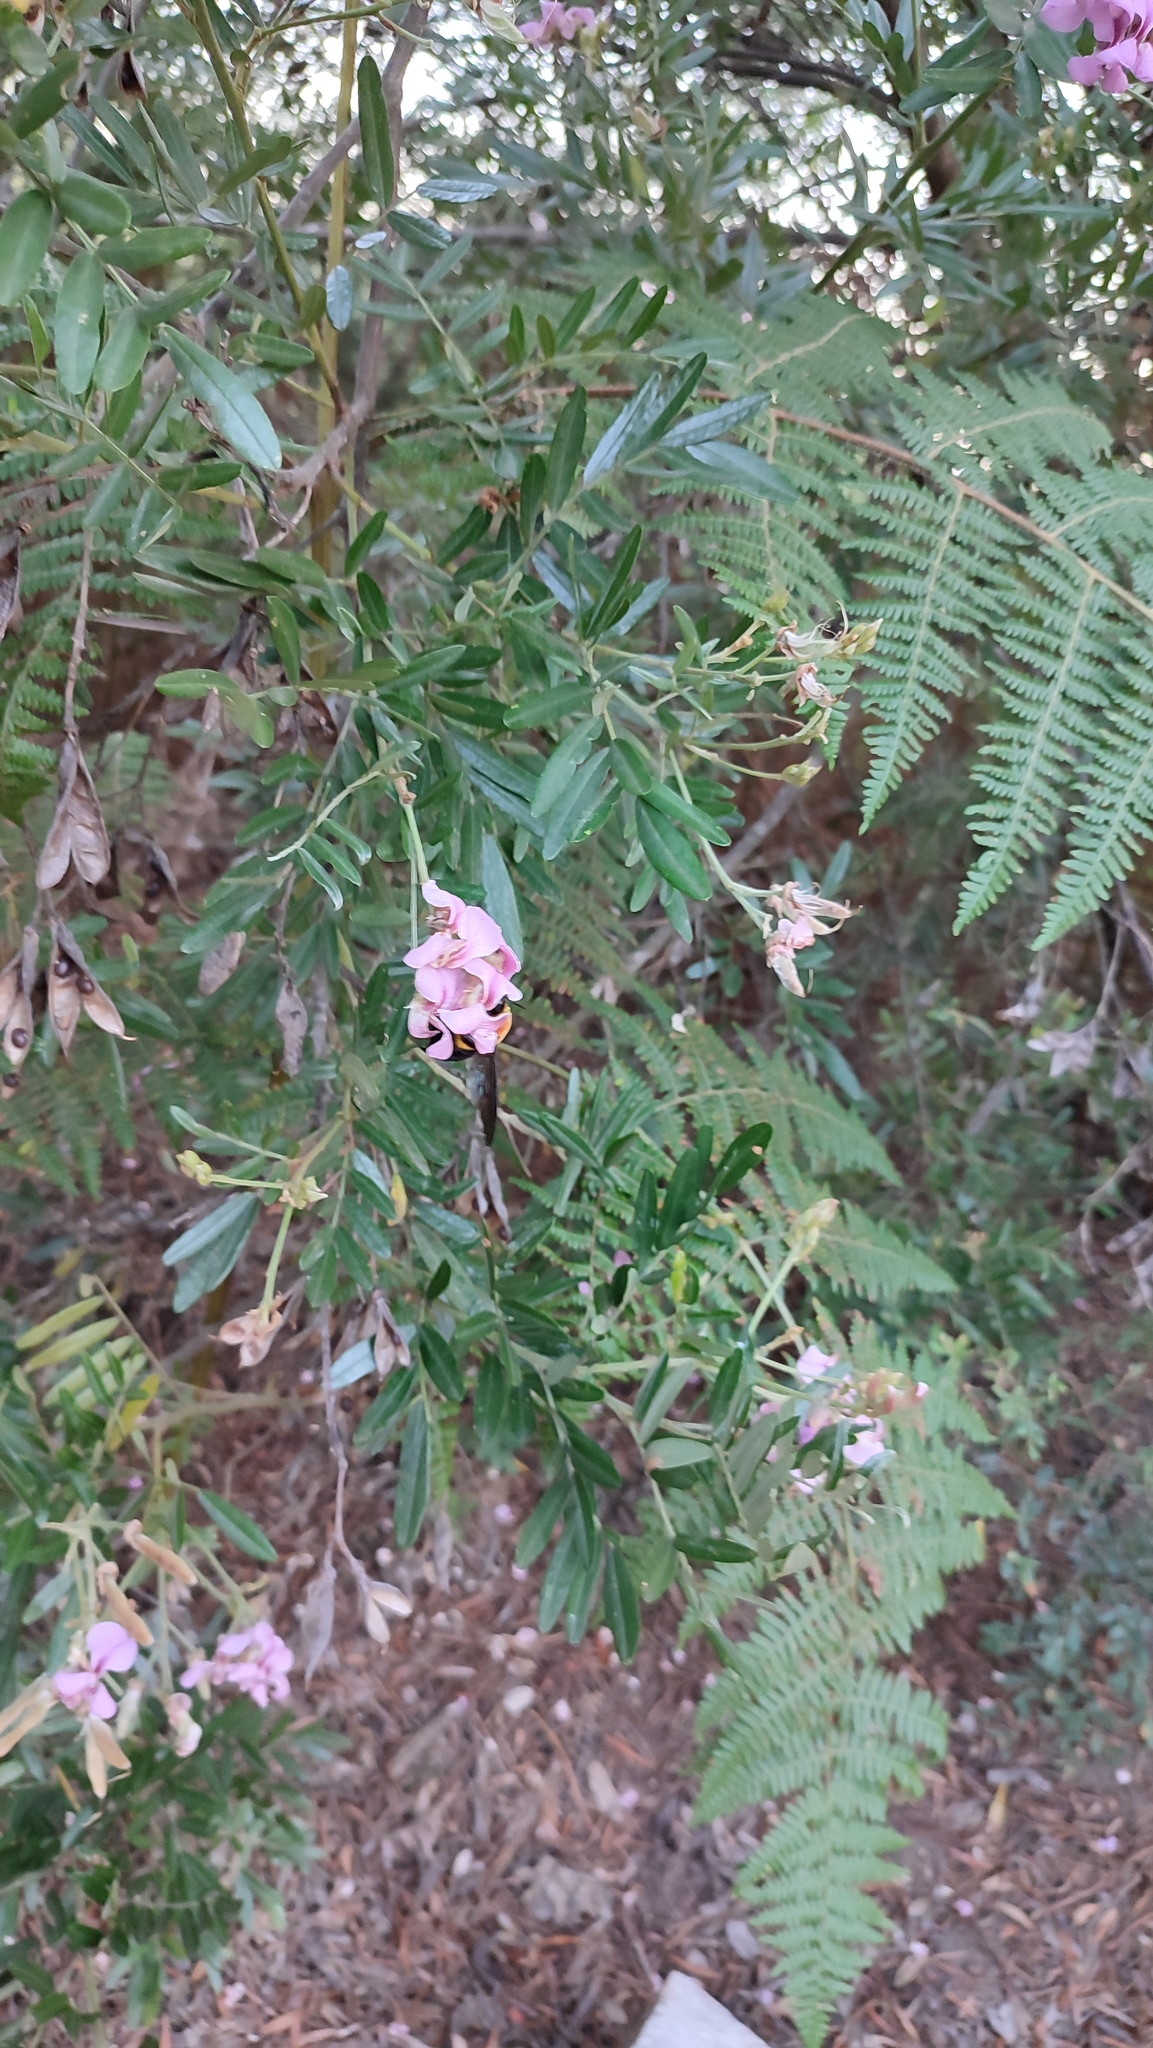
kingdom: Plantae
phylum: Tracheophyta
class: Magnoliopsida
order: Fabales
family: Fabaceae
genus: Virgilia
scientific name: Virgilia divaricata
